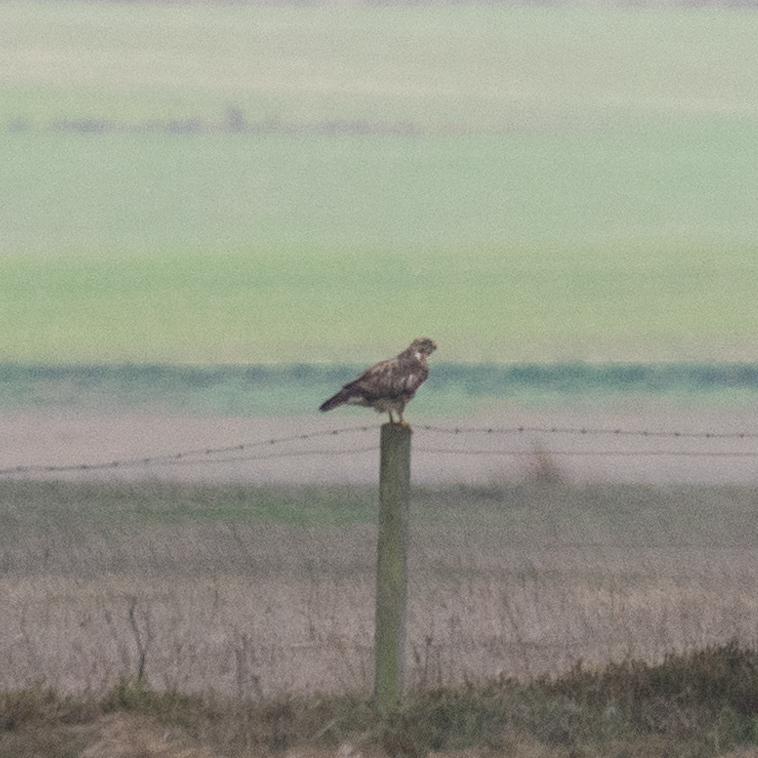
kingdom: Animalia
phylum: Chordata
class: Aves
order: Accipitriformes
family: Accipitridae
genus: Buteo
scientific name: Buteo buteo
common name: Common buzzard
